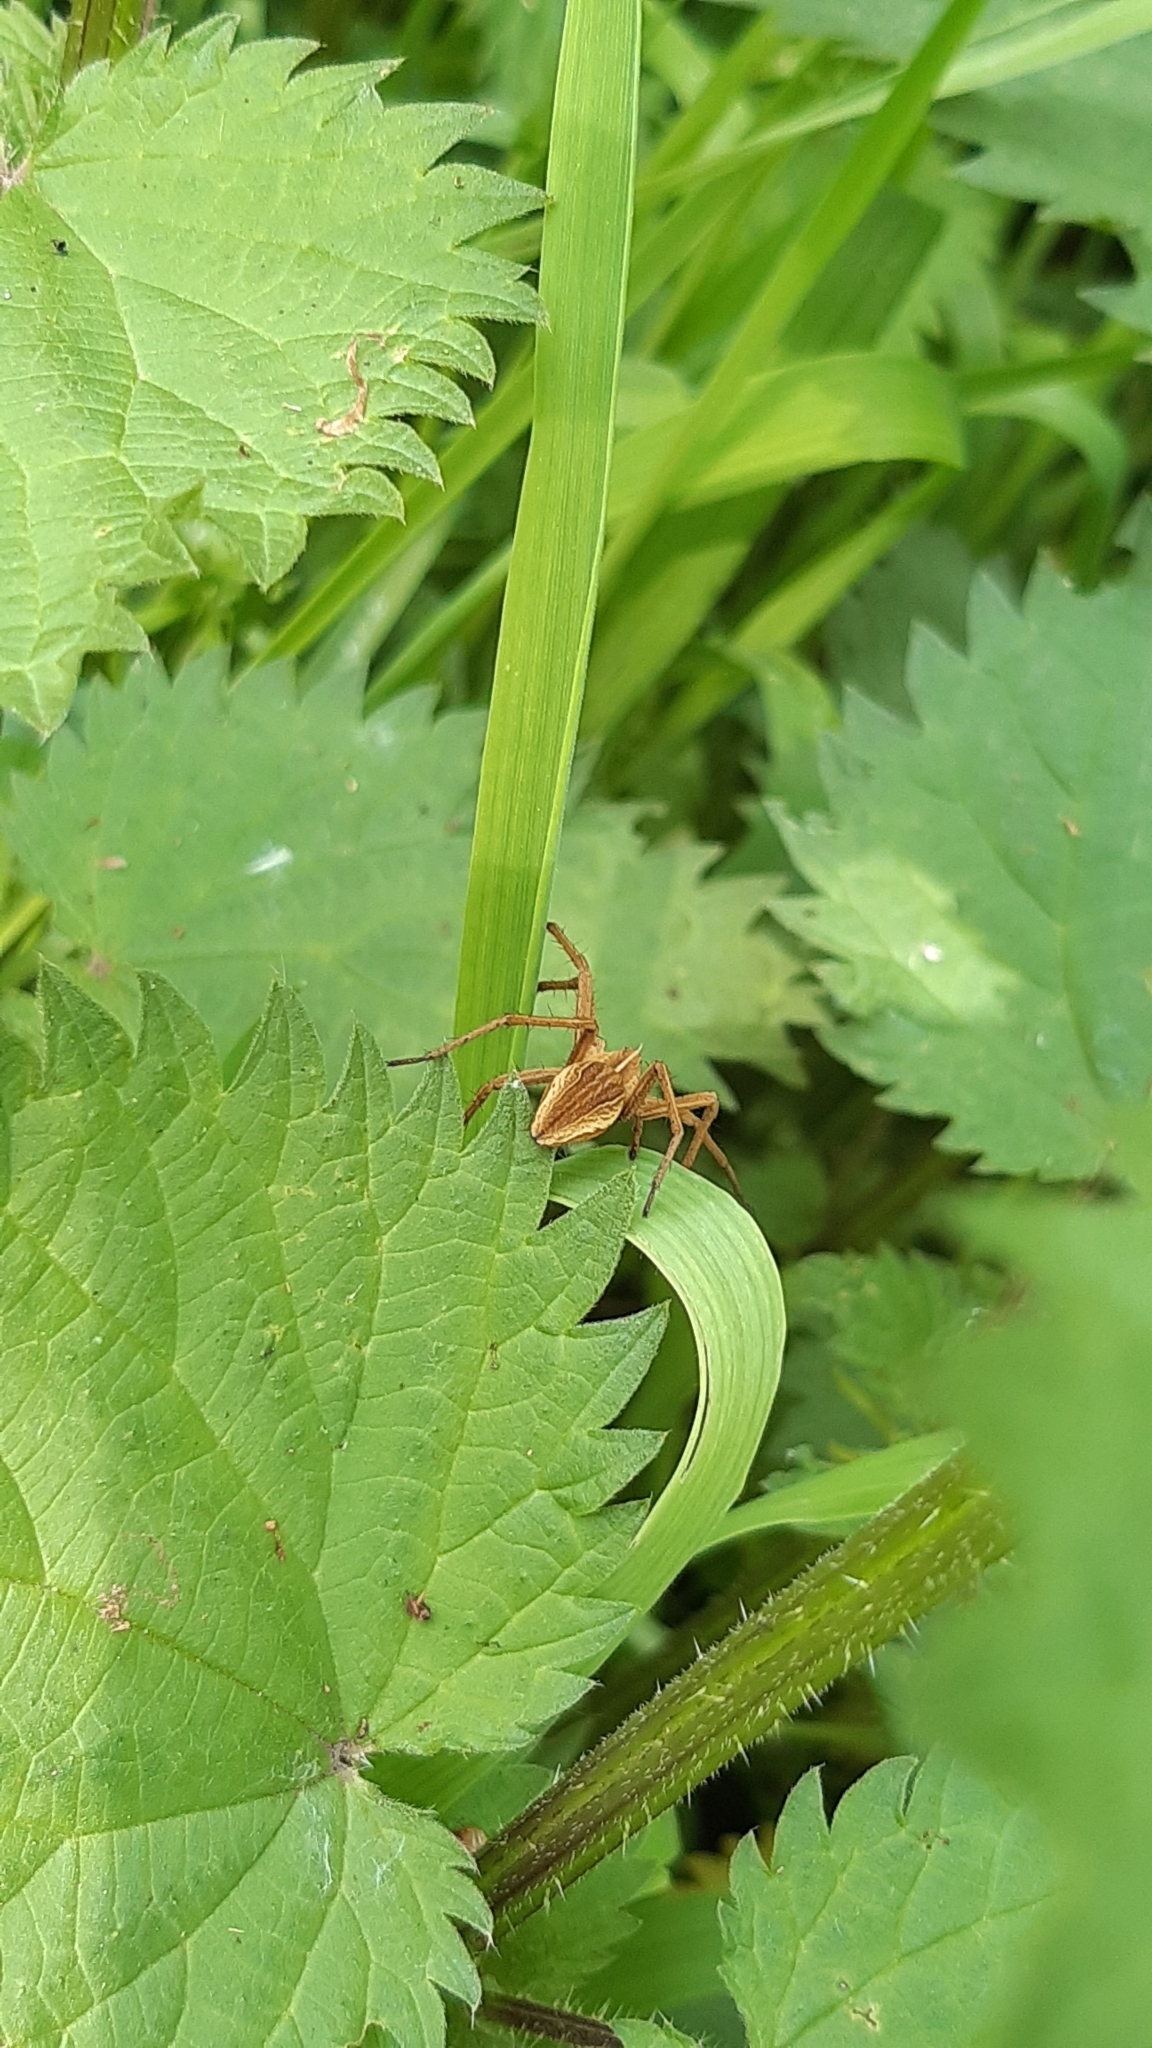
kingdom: Animalia
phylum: Arthropoda
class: Arachnida
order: Araneae
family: Pisauridae
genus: Pisaura
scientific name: Pisaura mirabilis
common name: Tent spider
